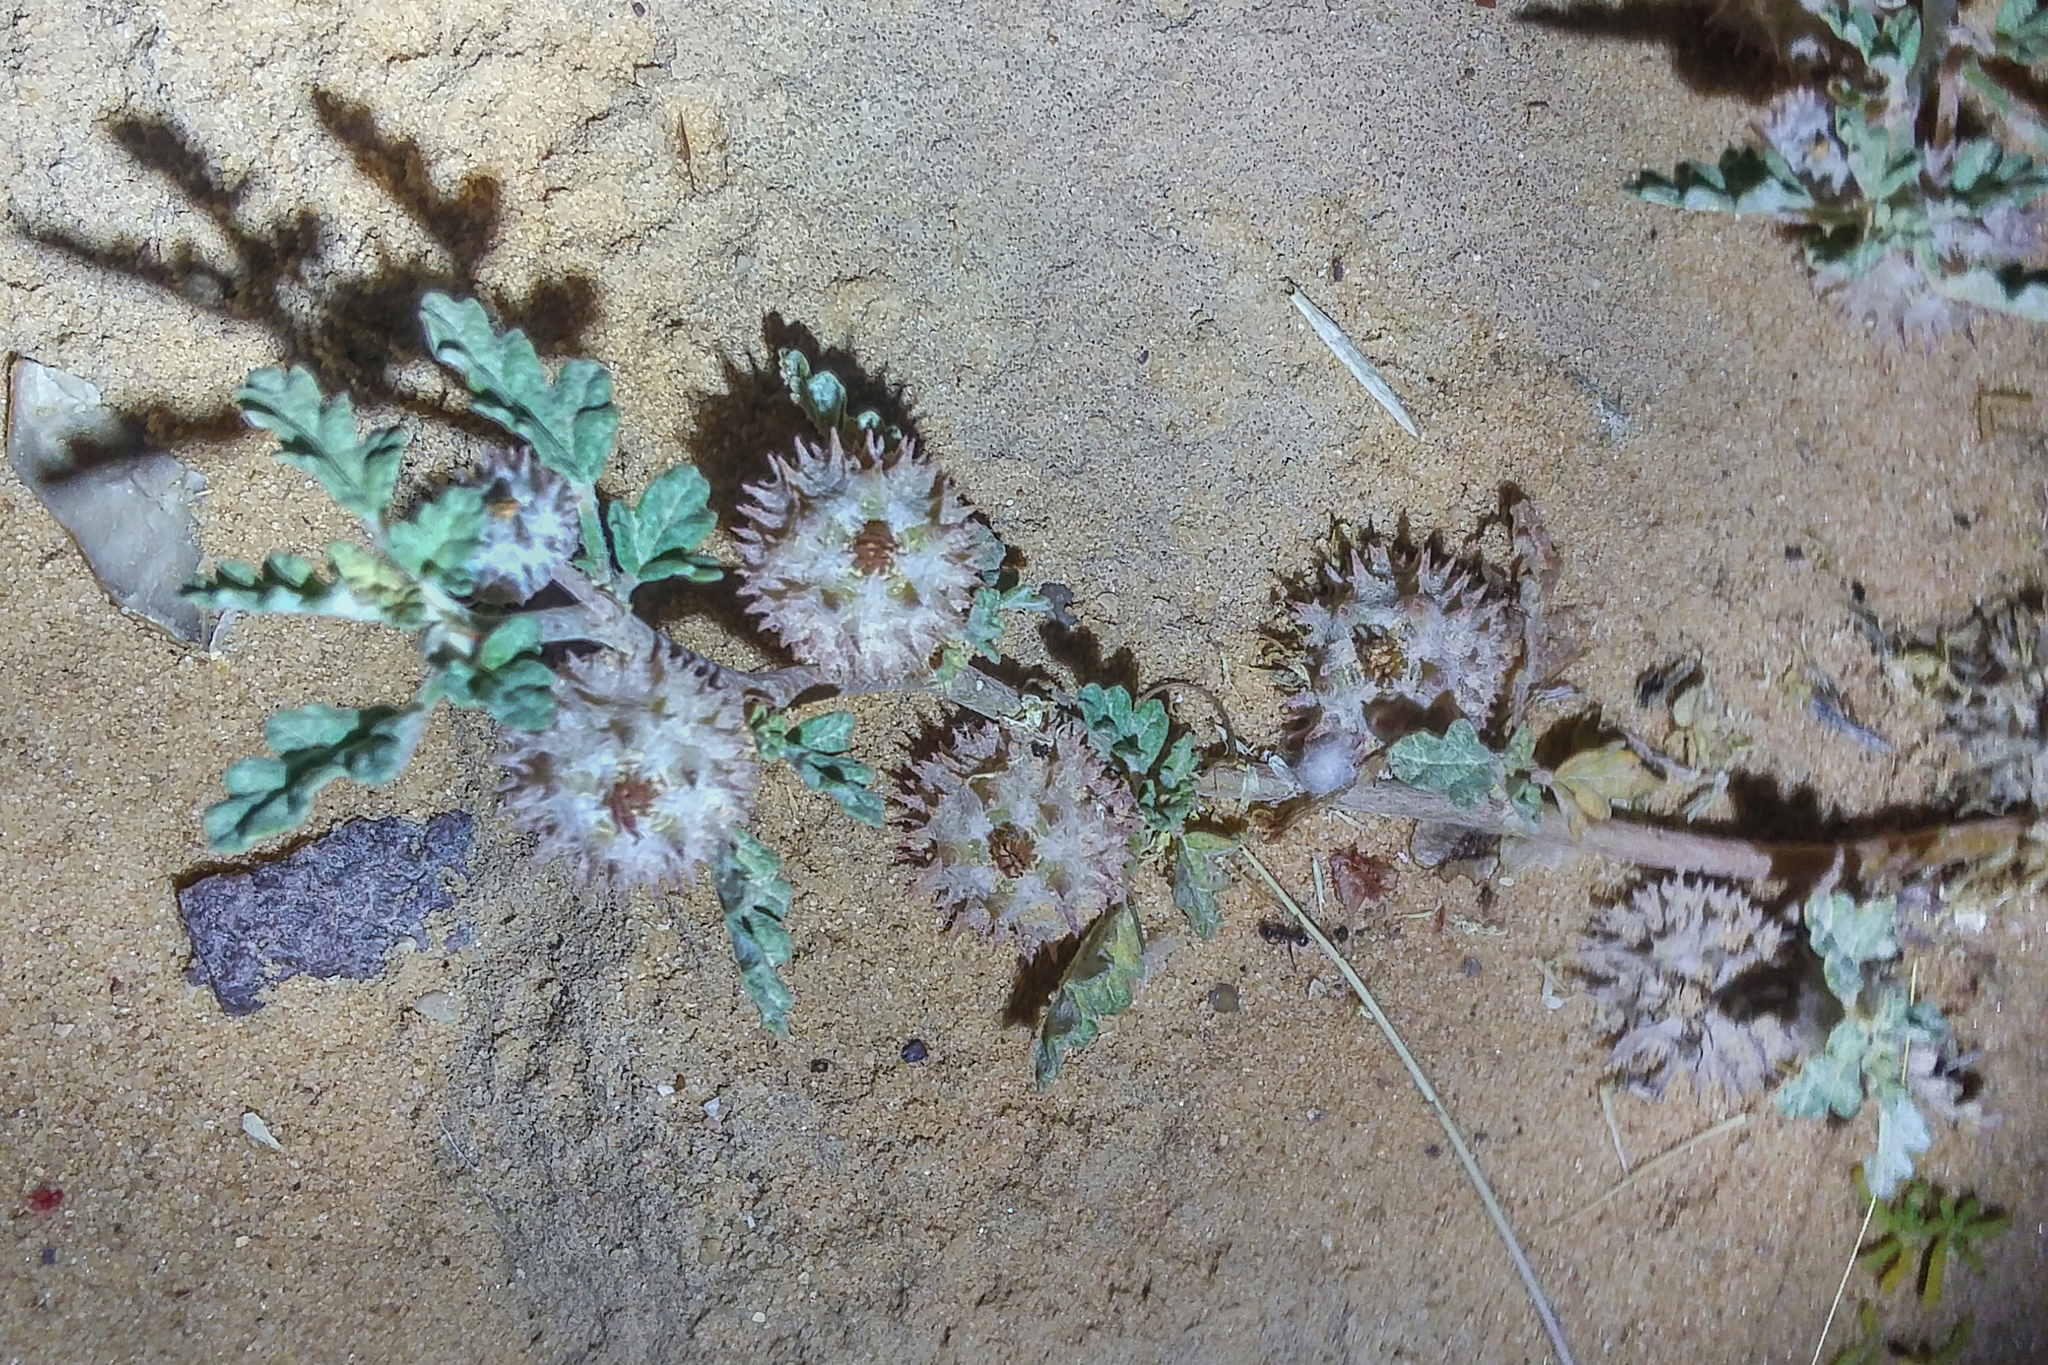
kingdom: Plantae
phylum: Tracheophyta
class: Magnoliopsida
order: Malvales
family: Neuradaceae
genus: Neurada
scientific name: Neurada procumbens
